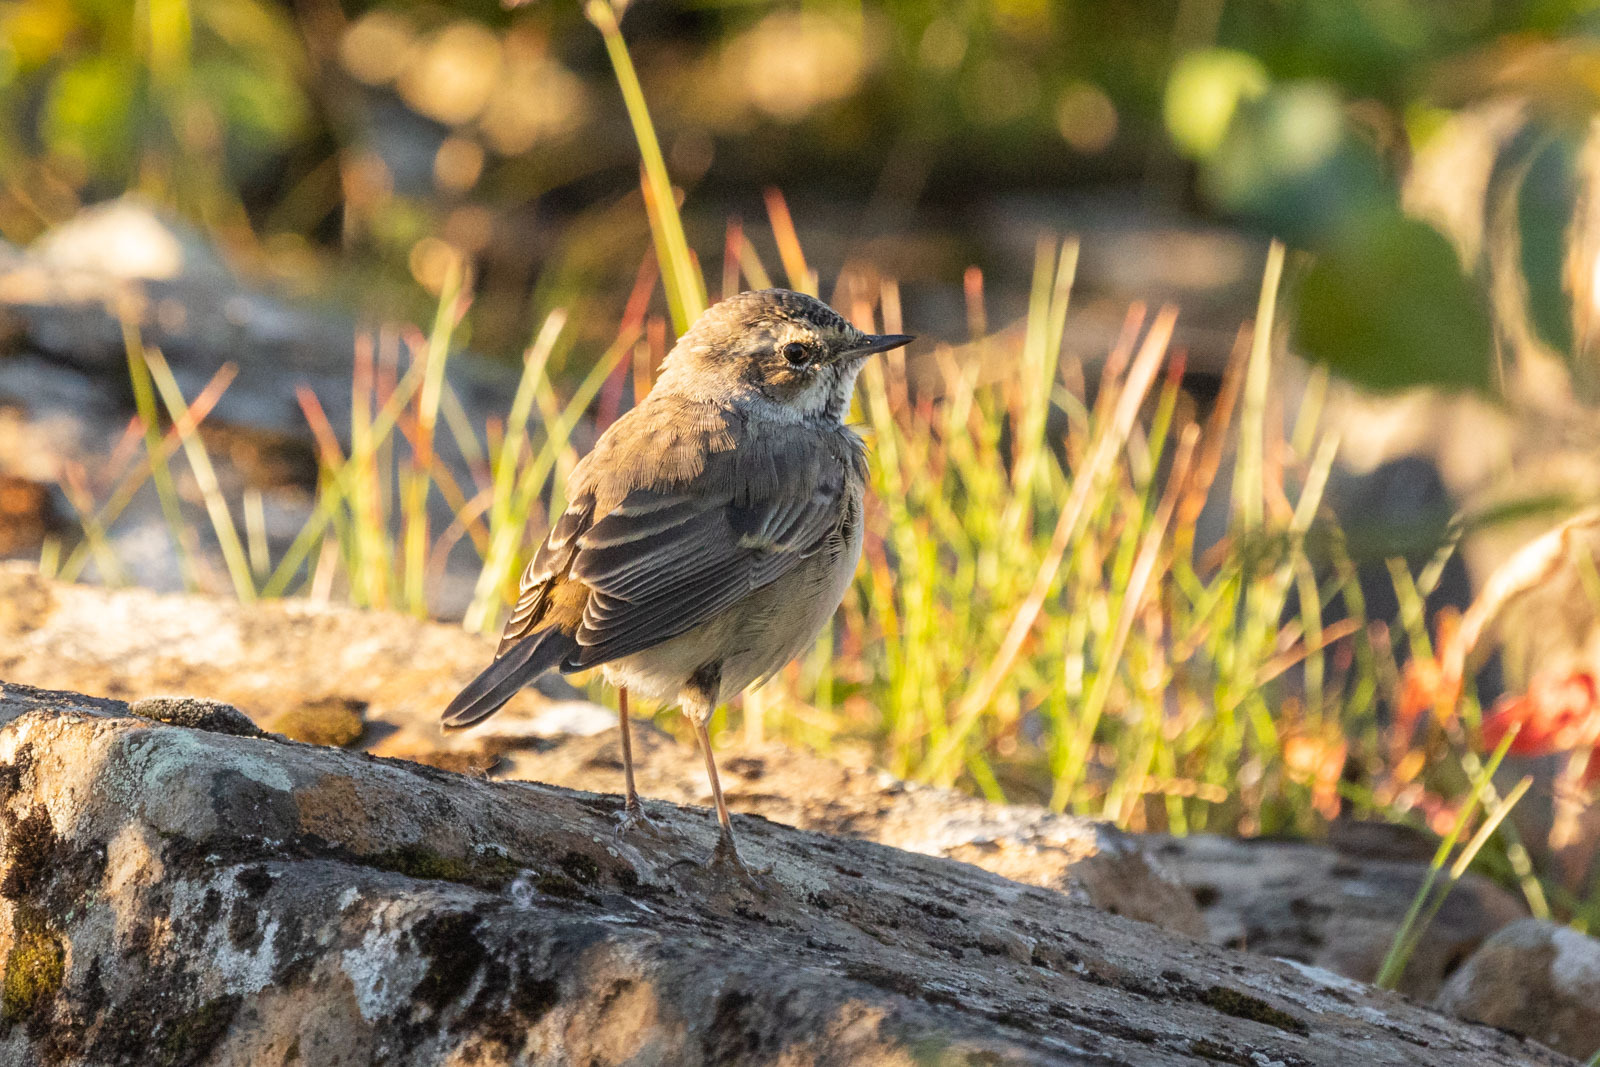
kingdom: Animalia
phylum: Chordata
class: Aves
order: Passeriformes
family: Muscicapidae
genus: Luscinia
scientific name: Luscinia svecica
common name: Bluethroat
